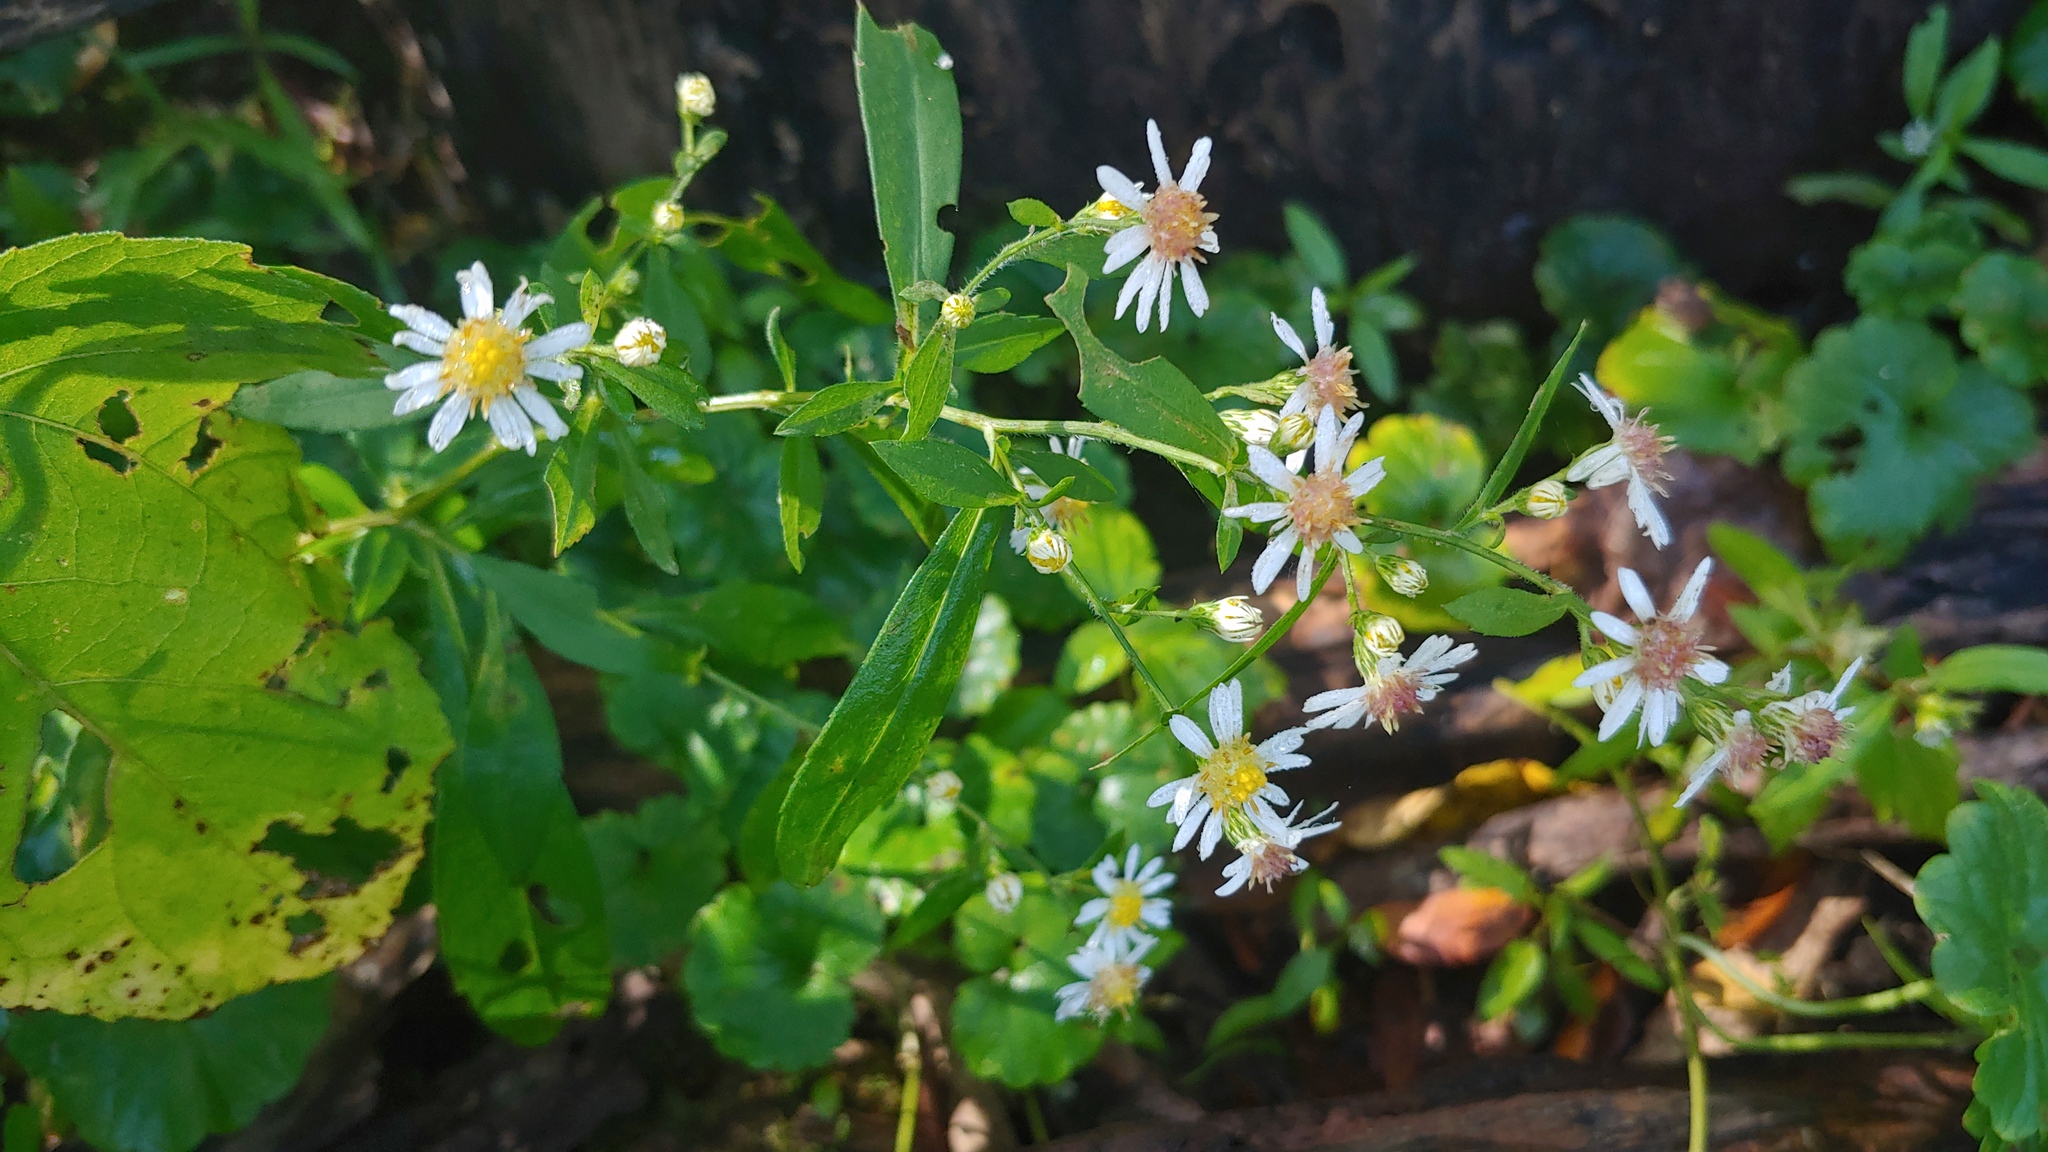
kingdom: Plantae
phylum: Tracheophyta
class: Magnoliopsida
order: Asterales
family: Asteraceae
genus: Symphyotrichum
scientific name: Symphyotrichum lateriflorum
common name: Calico aster
